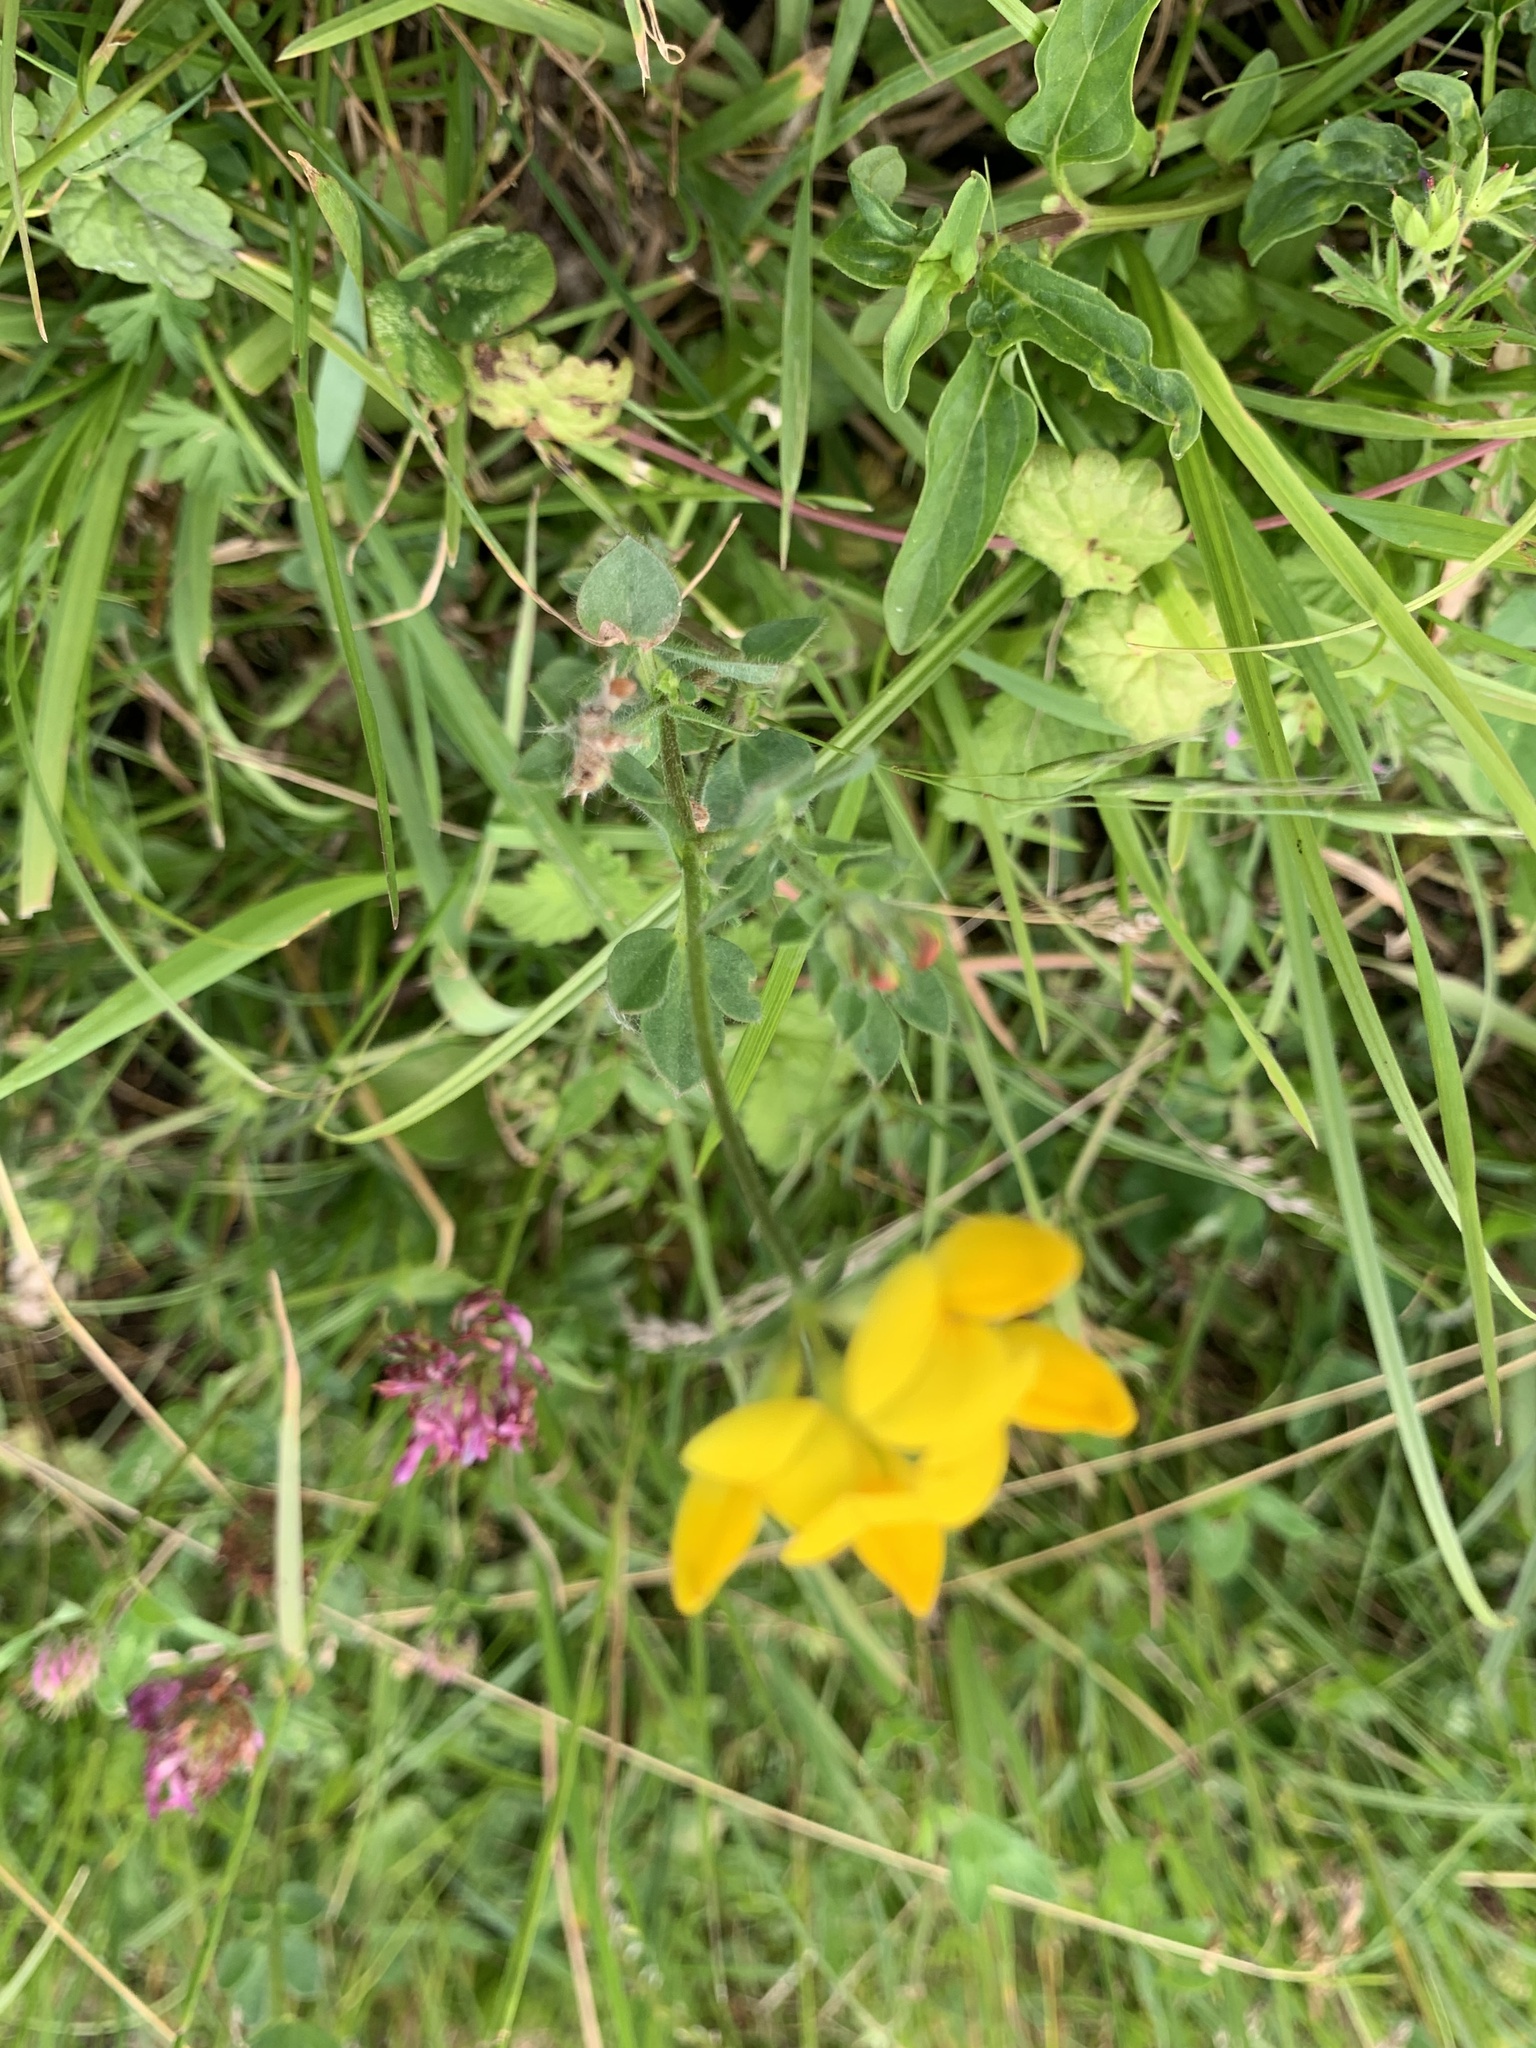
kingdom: Plantae
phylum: Tracheophyta
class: Magnoliopsida
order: Fabales
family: Fabaceae
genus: Lotus
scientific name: Lotus corniculatus
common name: Common bird's-foot-trefoil
